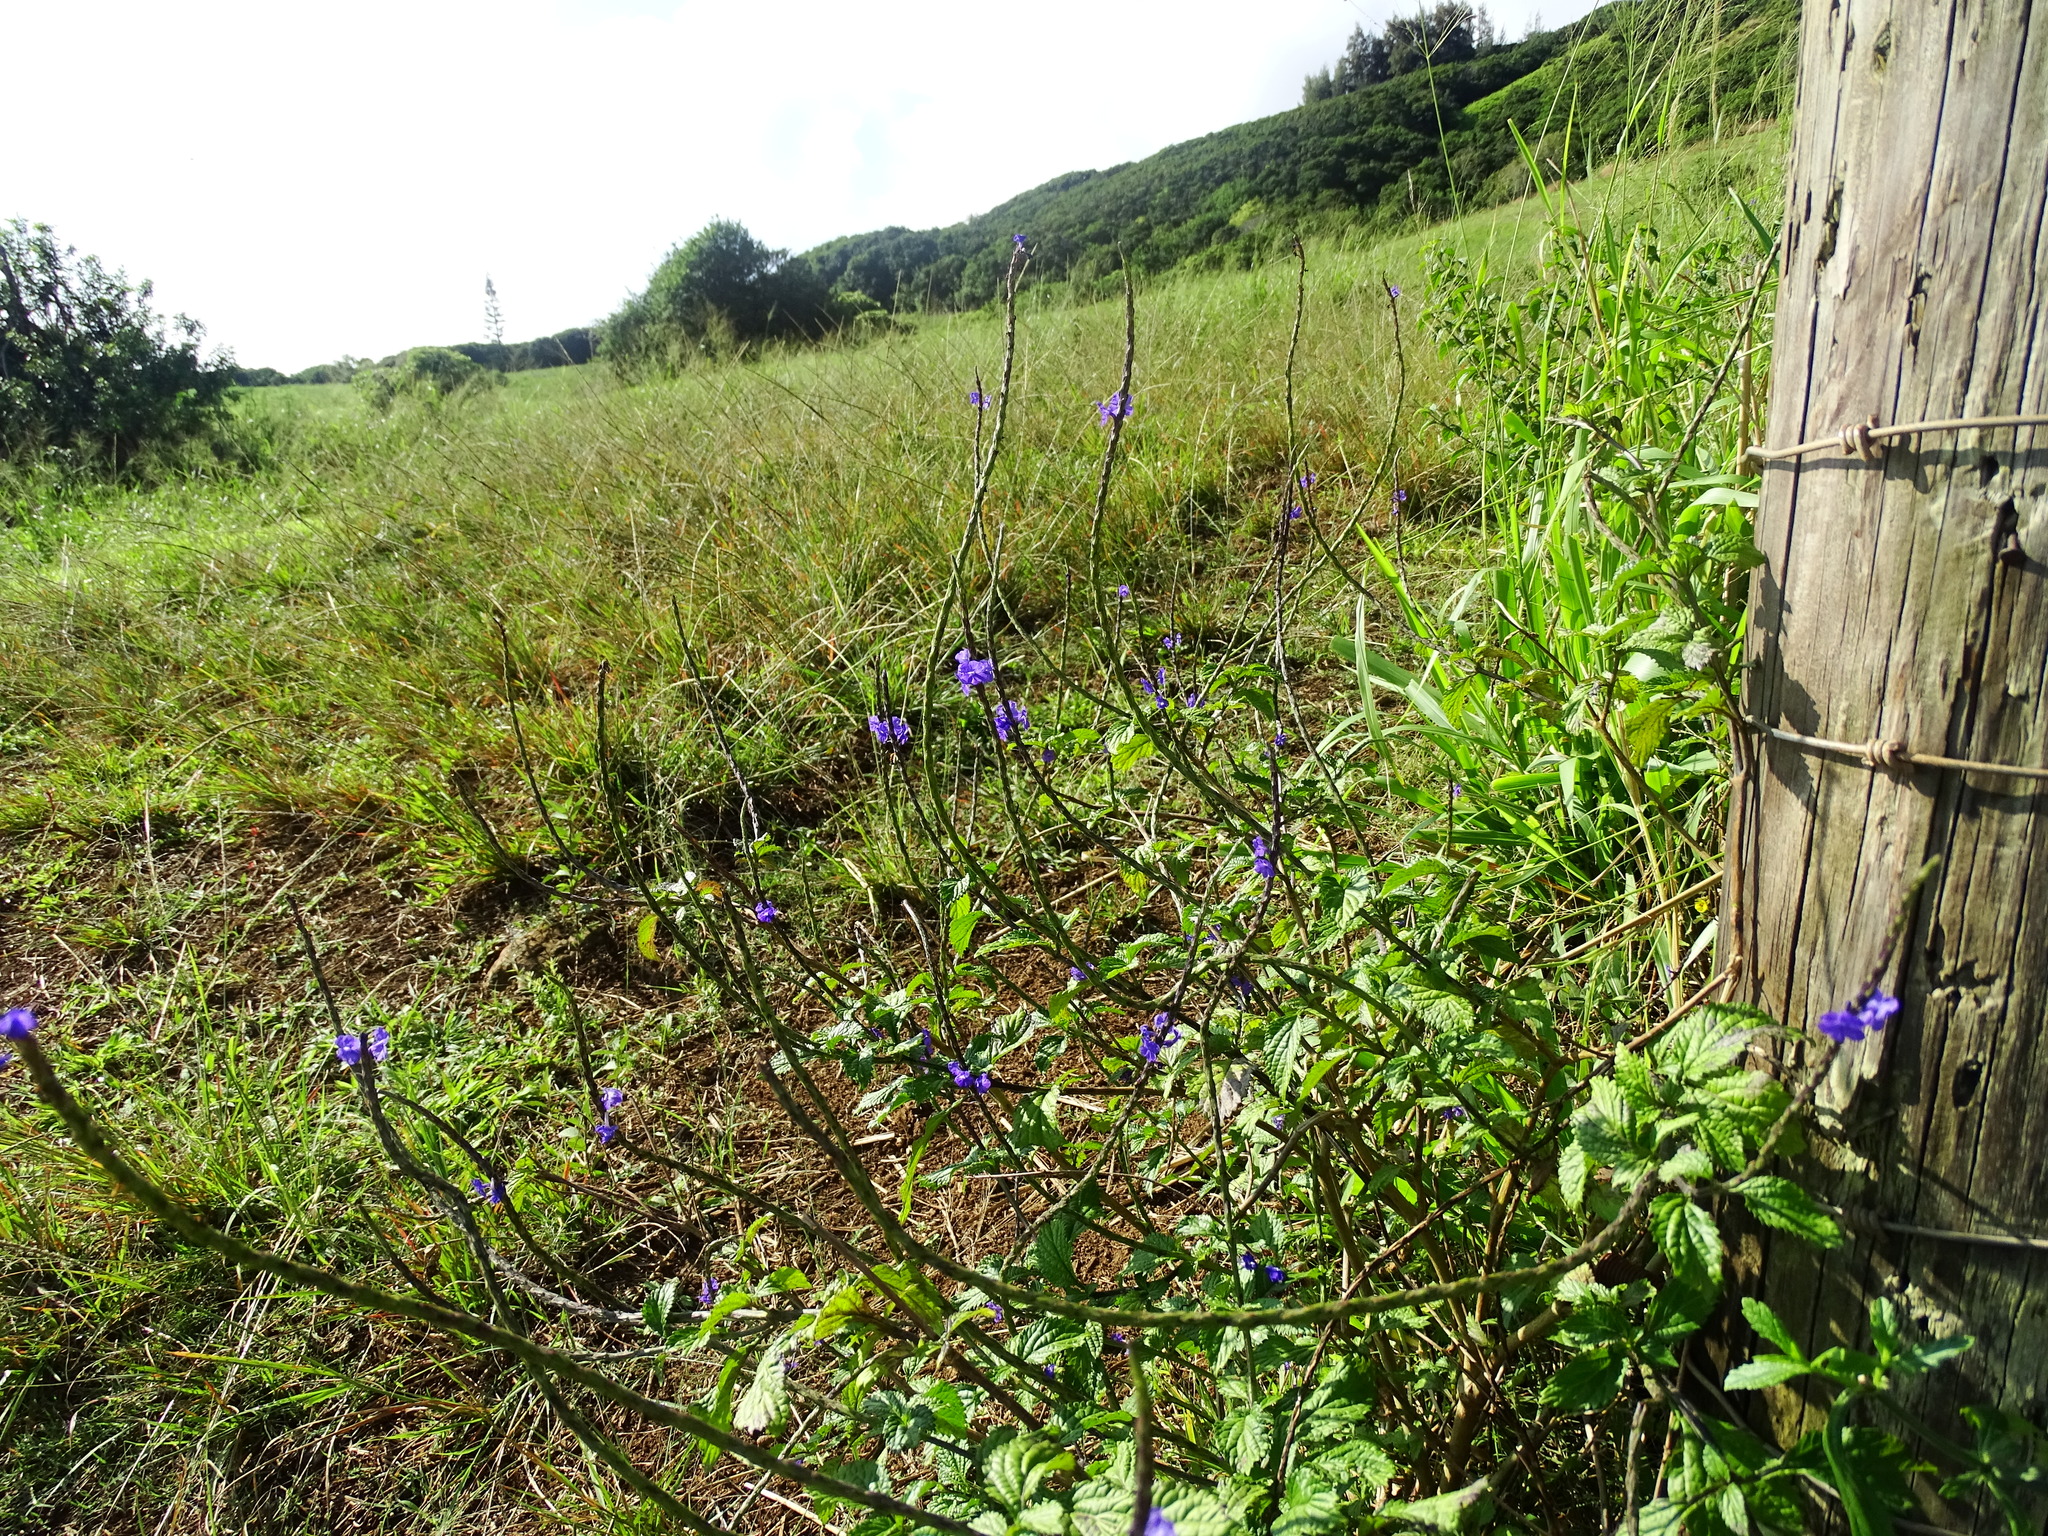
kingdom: Plantae
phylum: Tracheophyta
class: Magnoliopsida
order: Lamiales
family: Verbenaceae
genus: Stachytarpheta
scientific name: Stachytarpheta cayennensis
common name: Cayenne porterweed
